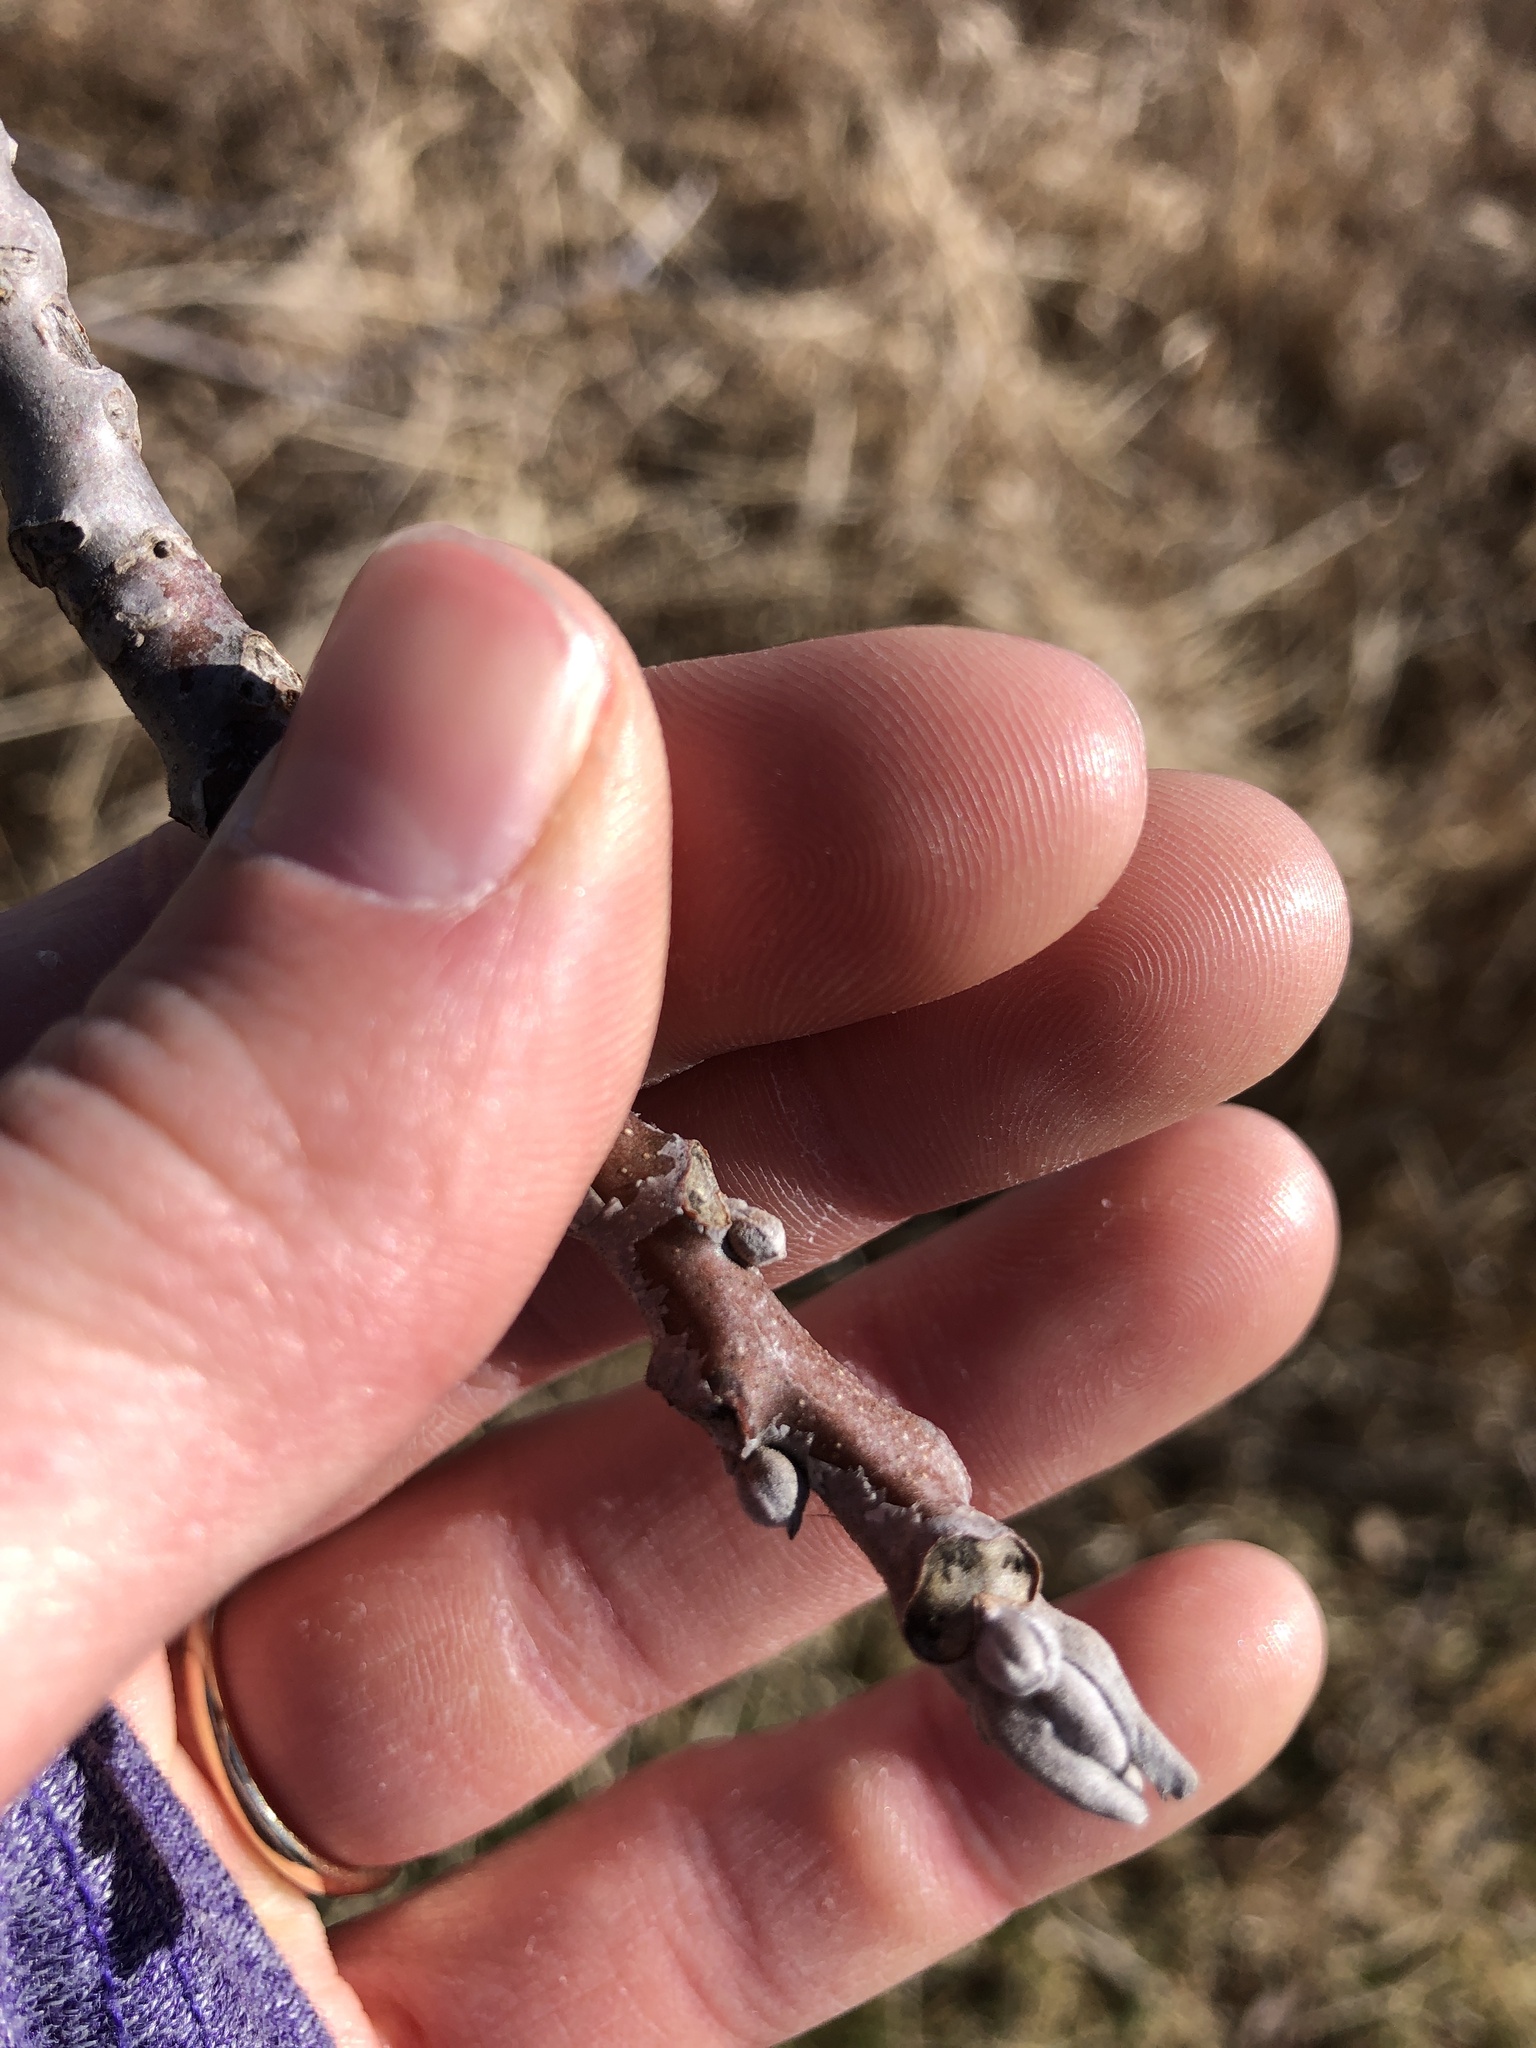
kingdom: Plantae
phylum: Tracheophyta
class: Magnoliopsida
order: Fagales
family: Juglandaceae
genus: Juglans
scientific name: Juglans nigra
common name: Black walnut
